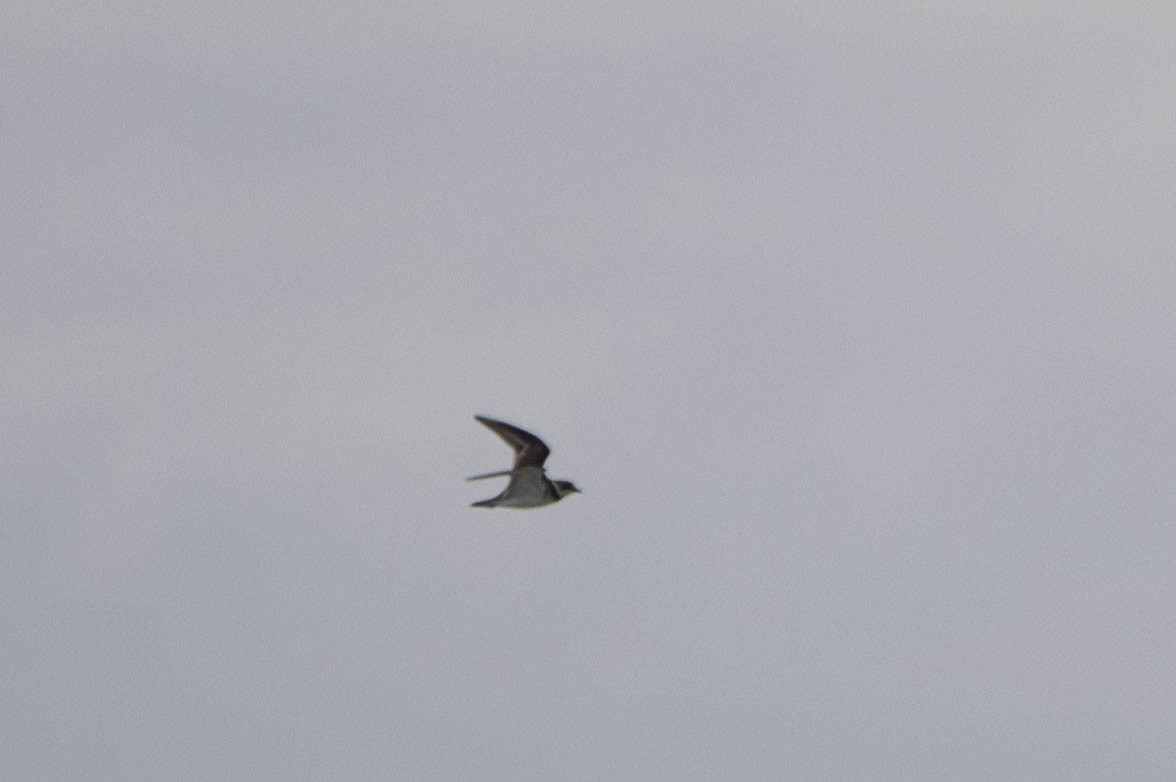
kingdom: Animalia
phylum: Chordata
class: Aves
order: Charadriiformes
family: Charadriidae
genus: Charadrius
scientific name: Charadrius semipalmatus
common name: Semipalmated plover
